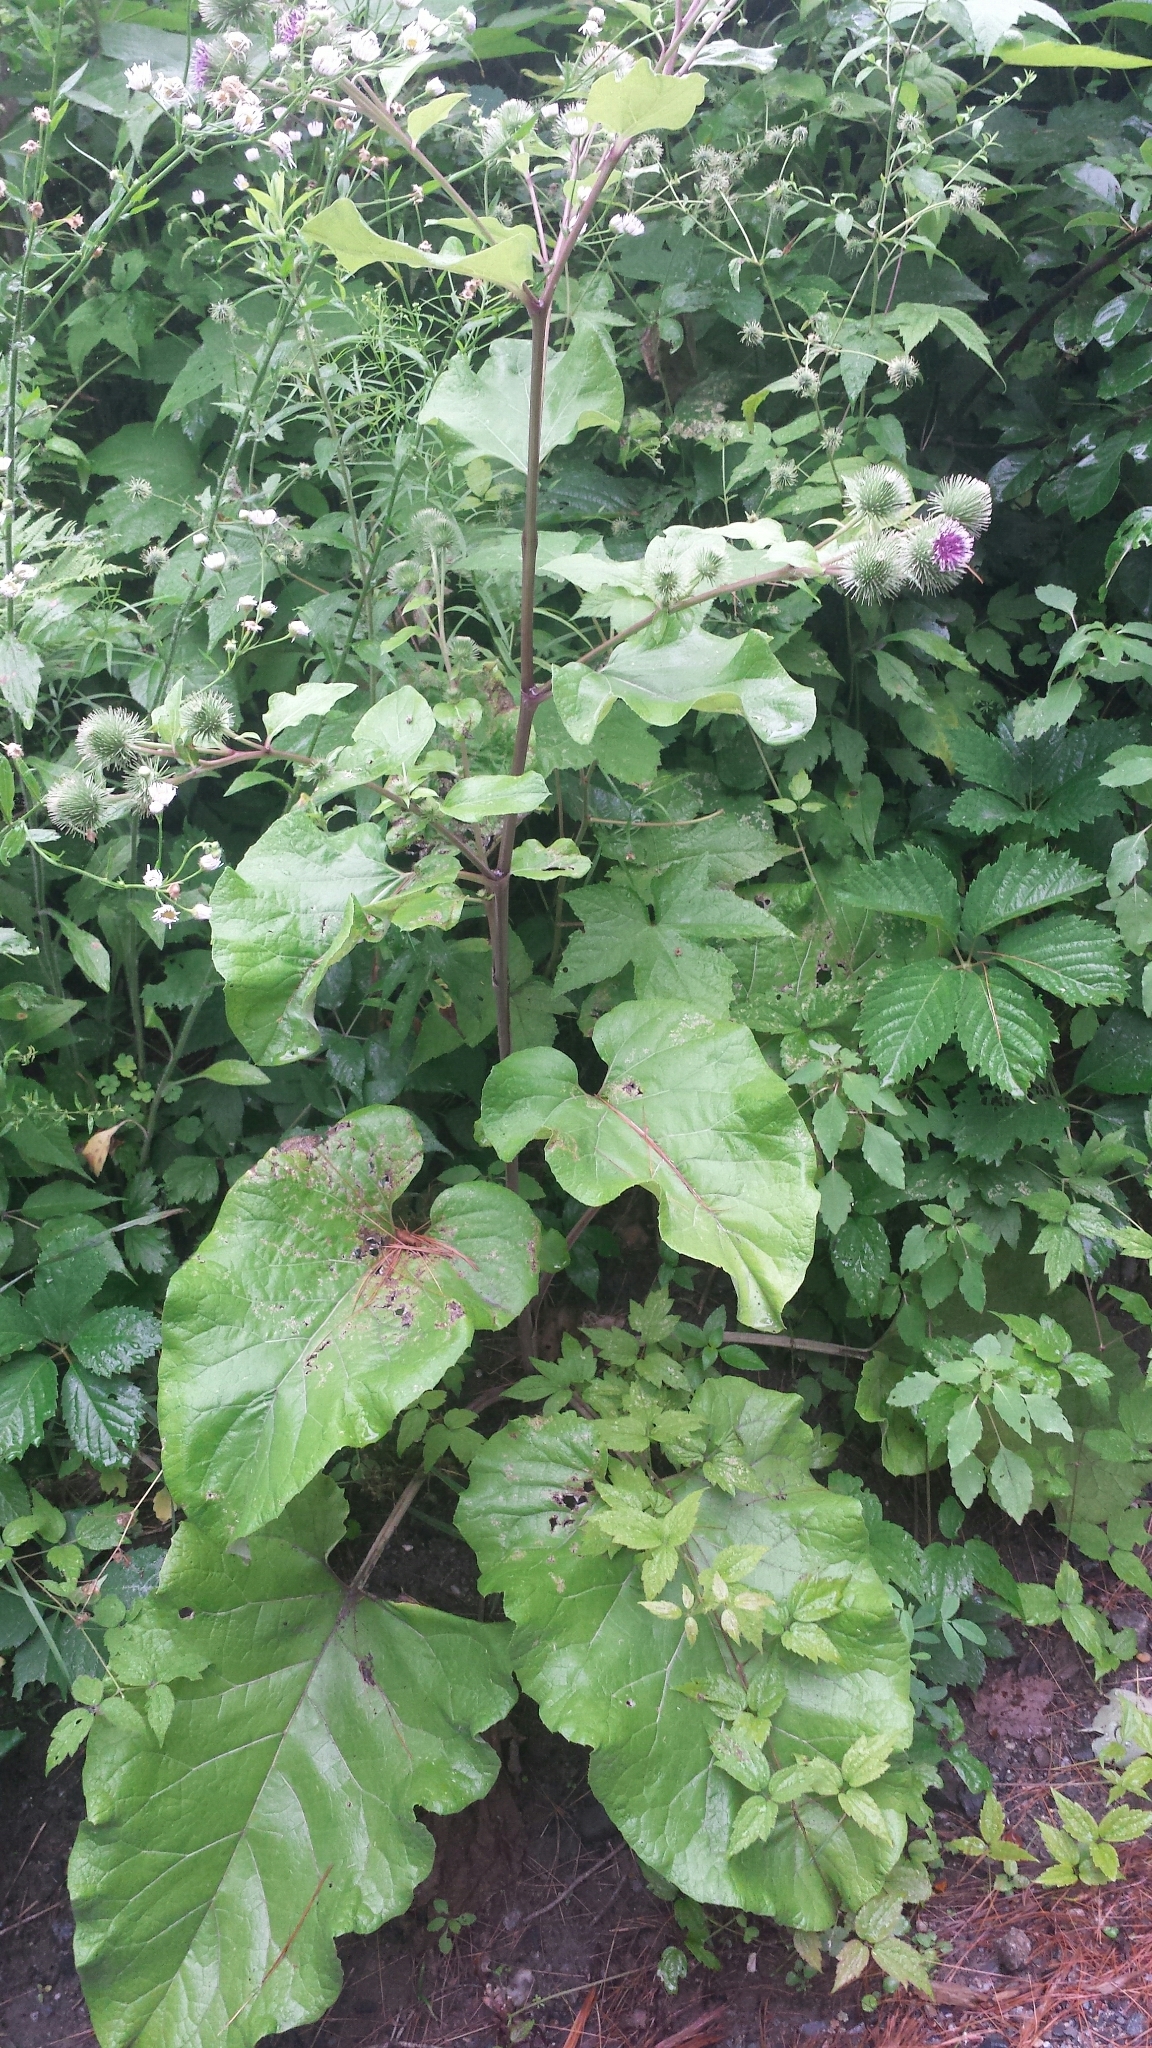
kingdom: Plantae
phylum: Tracheophyta
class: Magnoliopsida
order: Asterales
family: Asteraceae
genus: Arctium
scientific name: Arctium lappa
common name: Greater burdock
